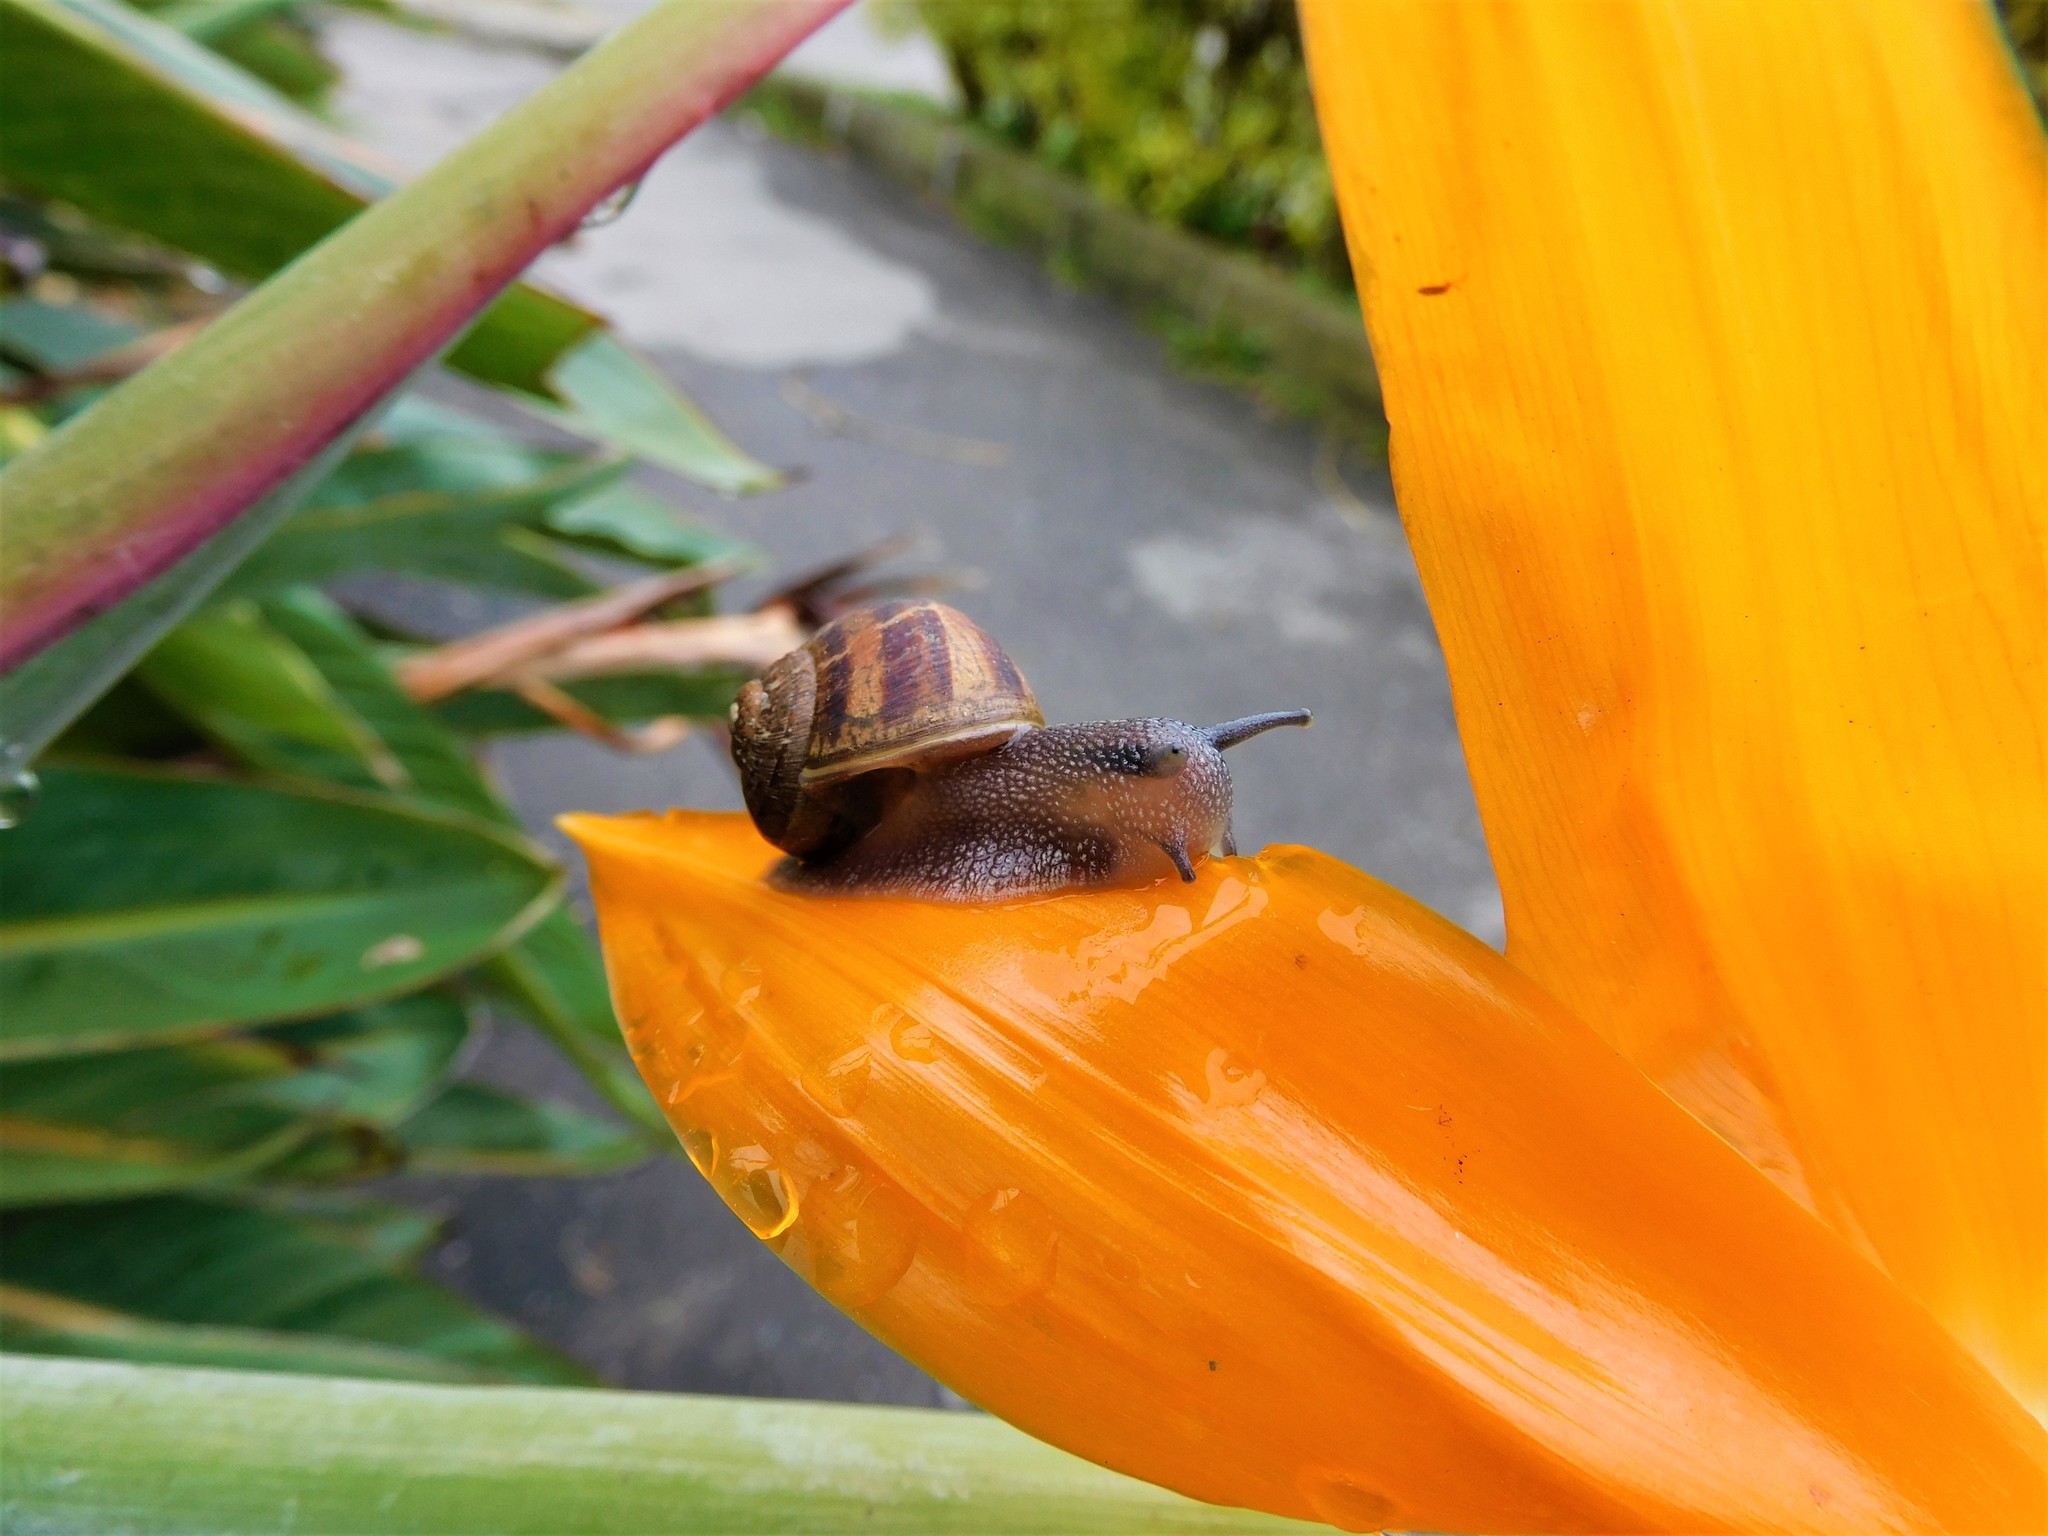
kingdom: Animalia
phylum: Mollusca
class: Gastropoda
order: Stylommatophora
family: Helicidae
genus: Cornu
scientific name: Cornu aspersum
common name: Brown garden snail
